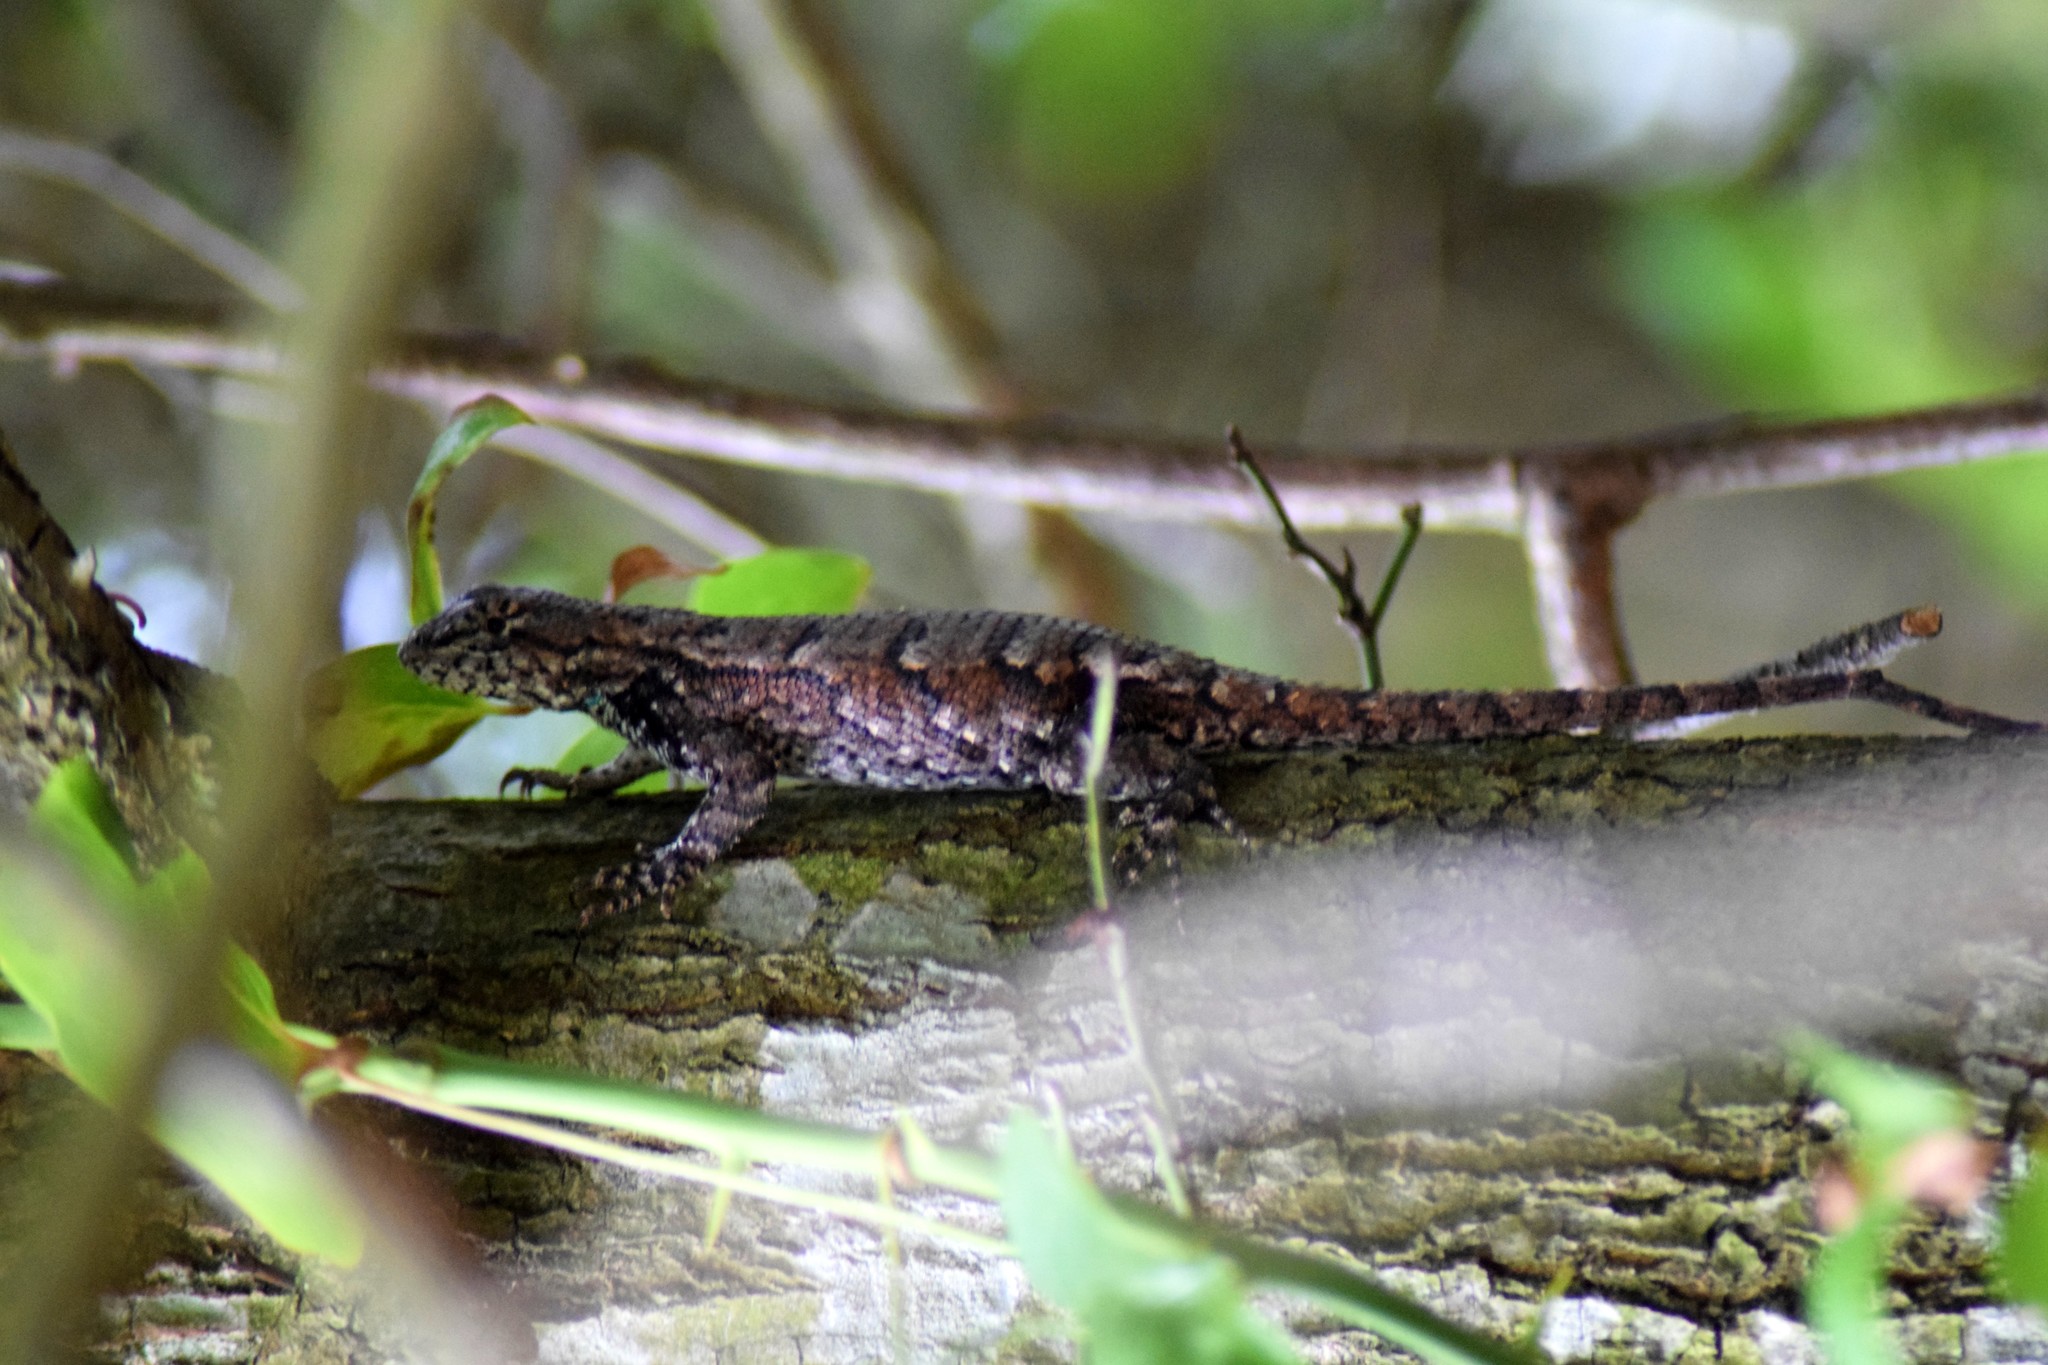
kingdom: Animalia
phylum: Chordata
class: Squamata
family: Phrynosomatidae
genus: Sceloporus
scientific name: Sceloporus undulatus
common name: Eastern fence lizard
